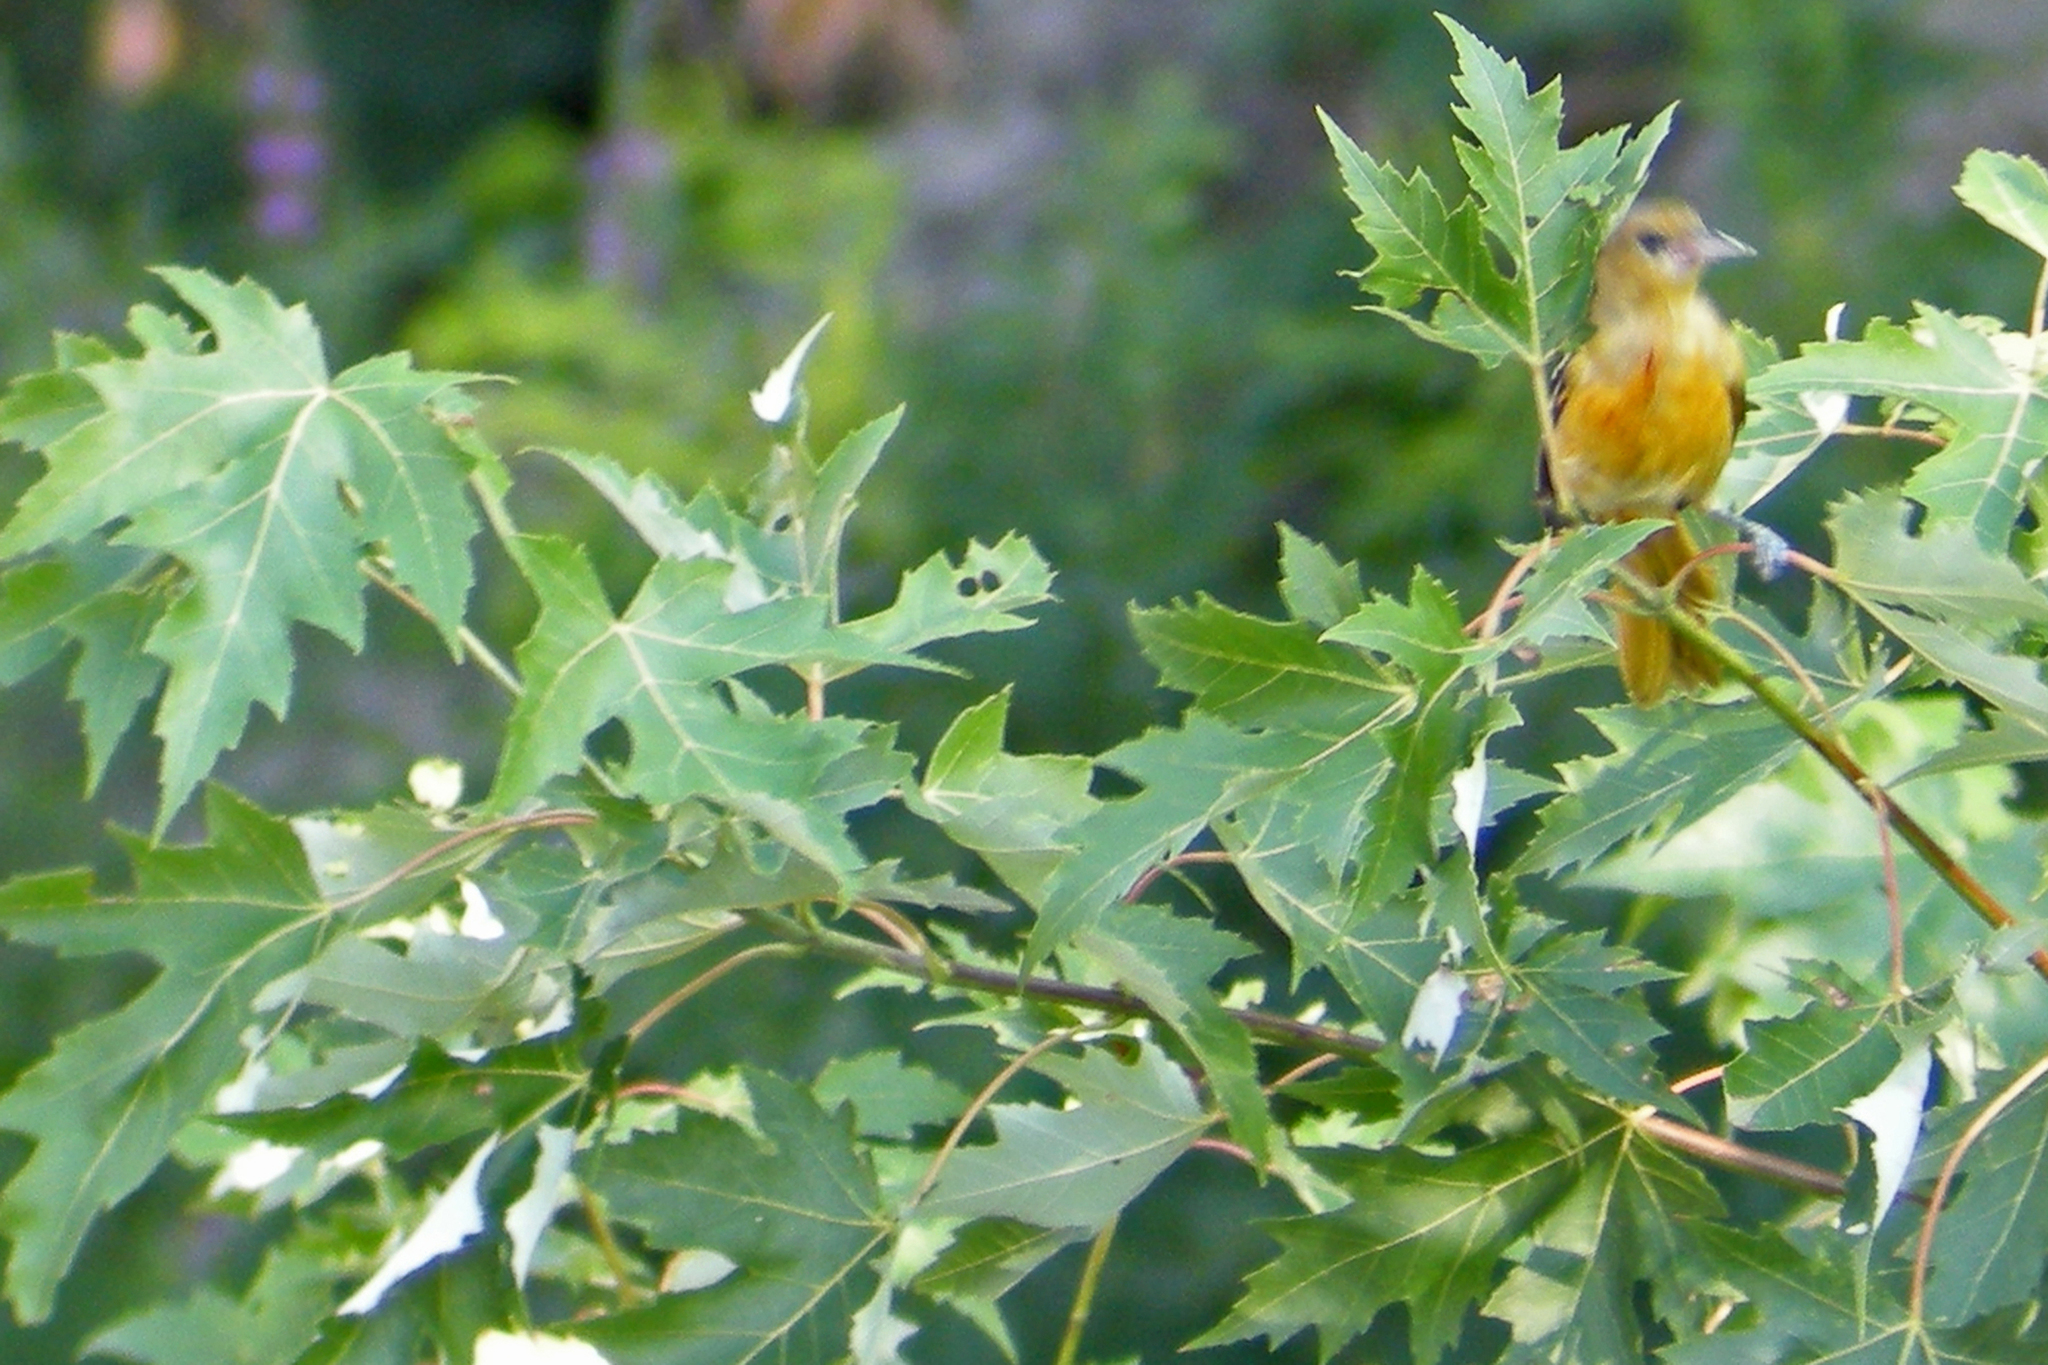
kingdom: Plantae
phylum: Tracheophyta
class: Magnoliopsida
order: Sapindales
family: Sapindaceae
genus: Acer
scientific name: Acer saccharinum
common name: Silver maple
